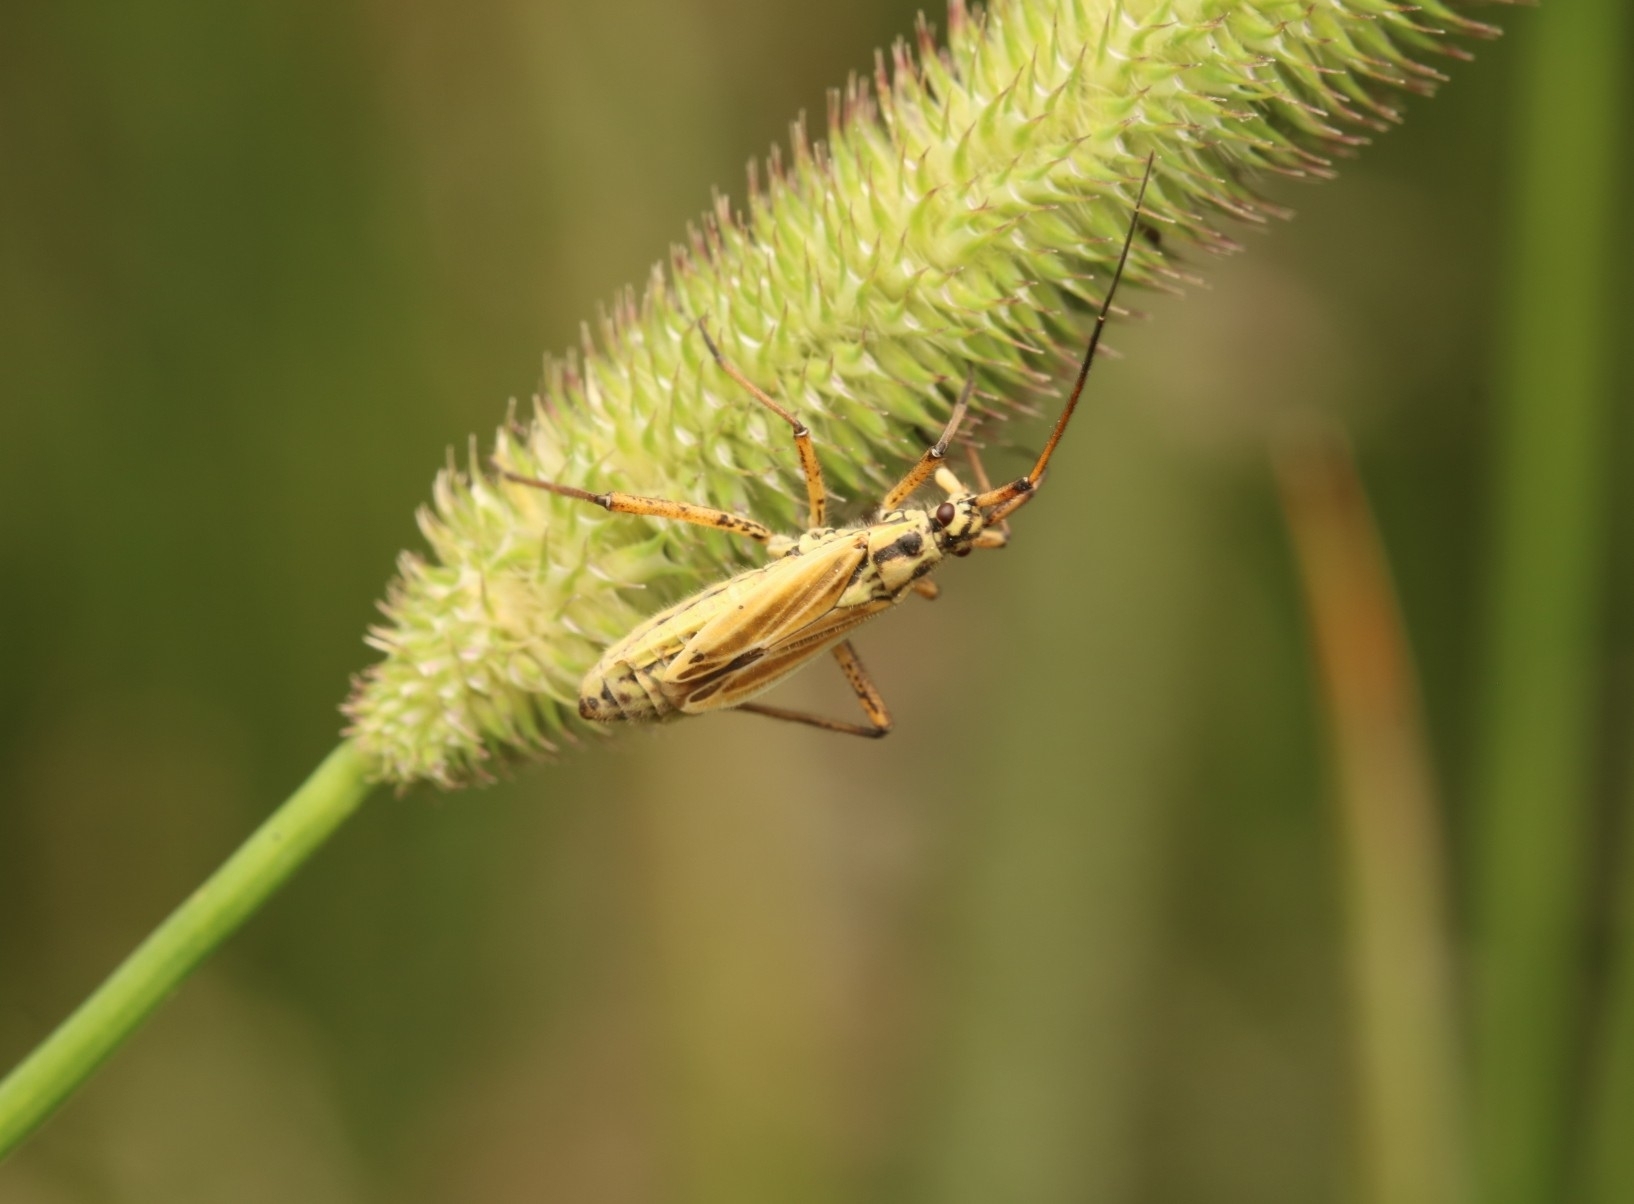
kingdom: Animalia
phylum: Arthropoda
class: Insecta
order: Hemiptera
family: Miridae
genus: Leptopterna
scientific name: Leptopterna dolabrata
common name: Meadow plant bug
